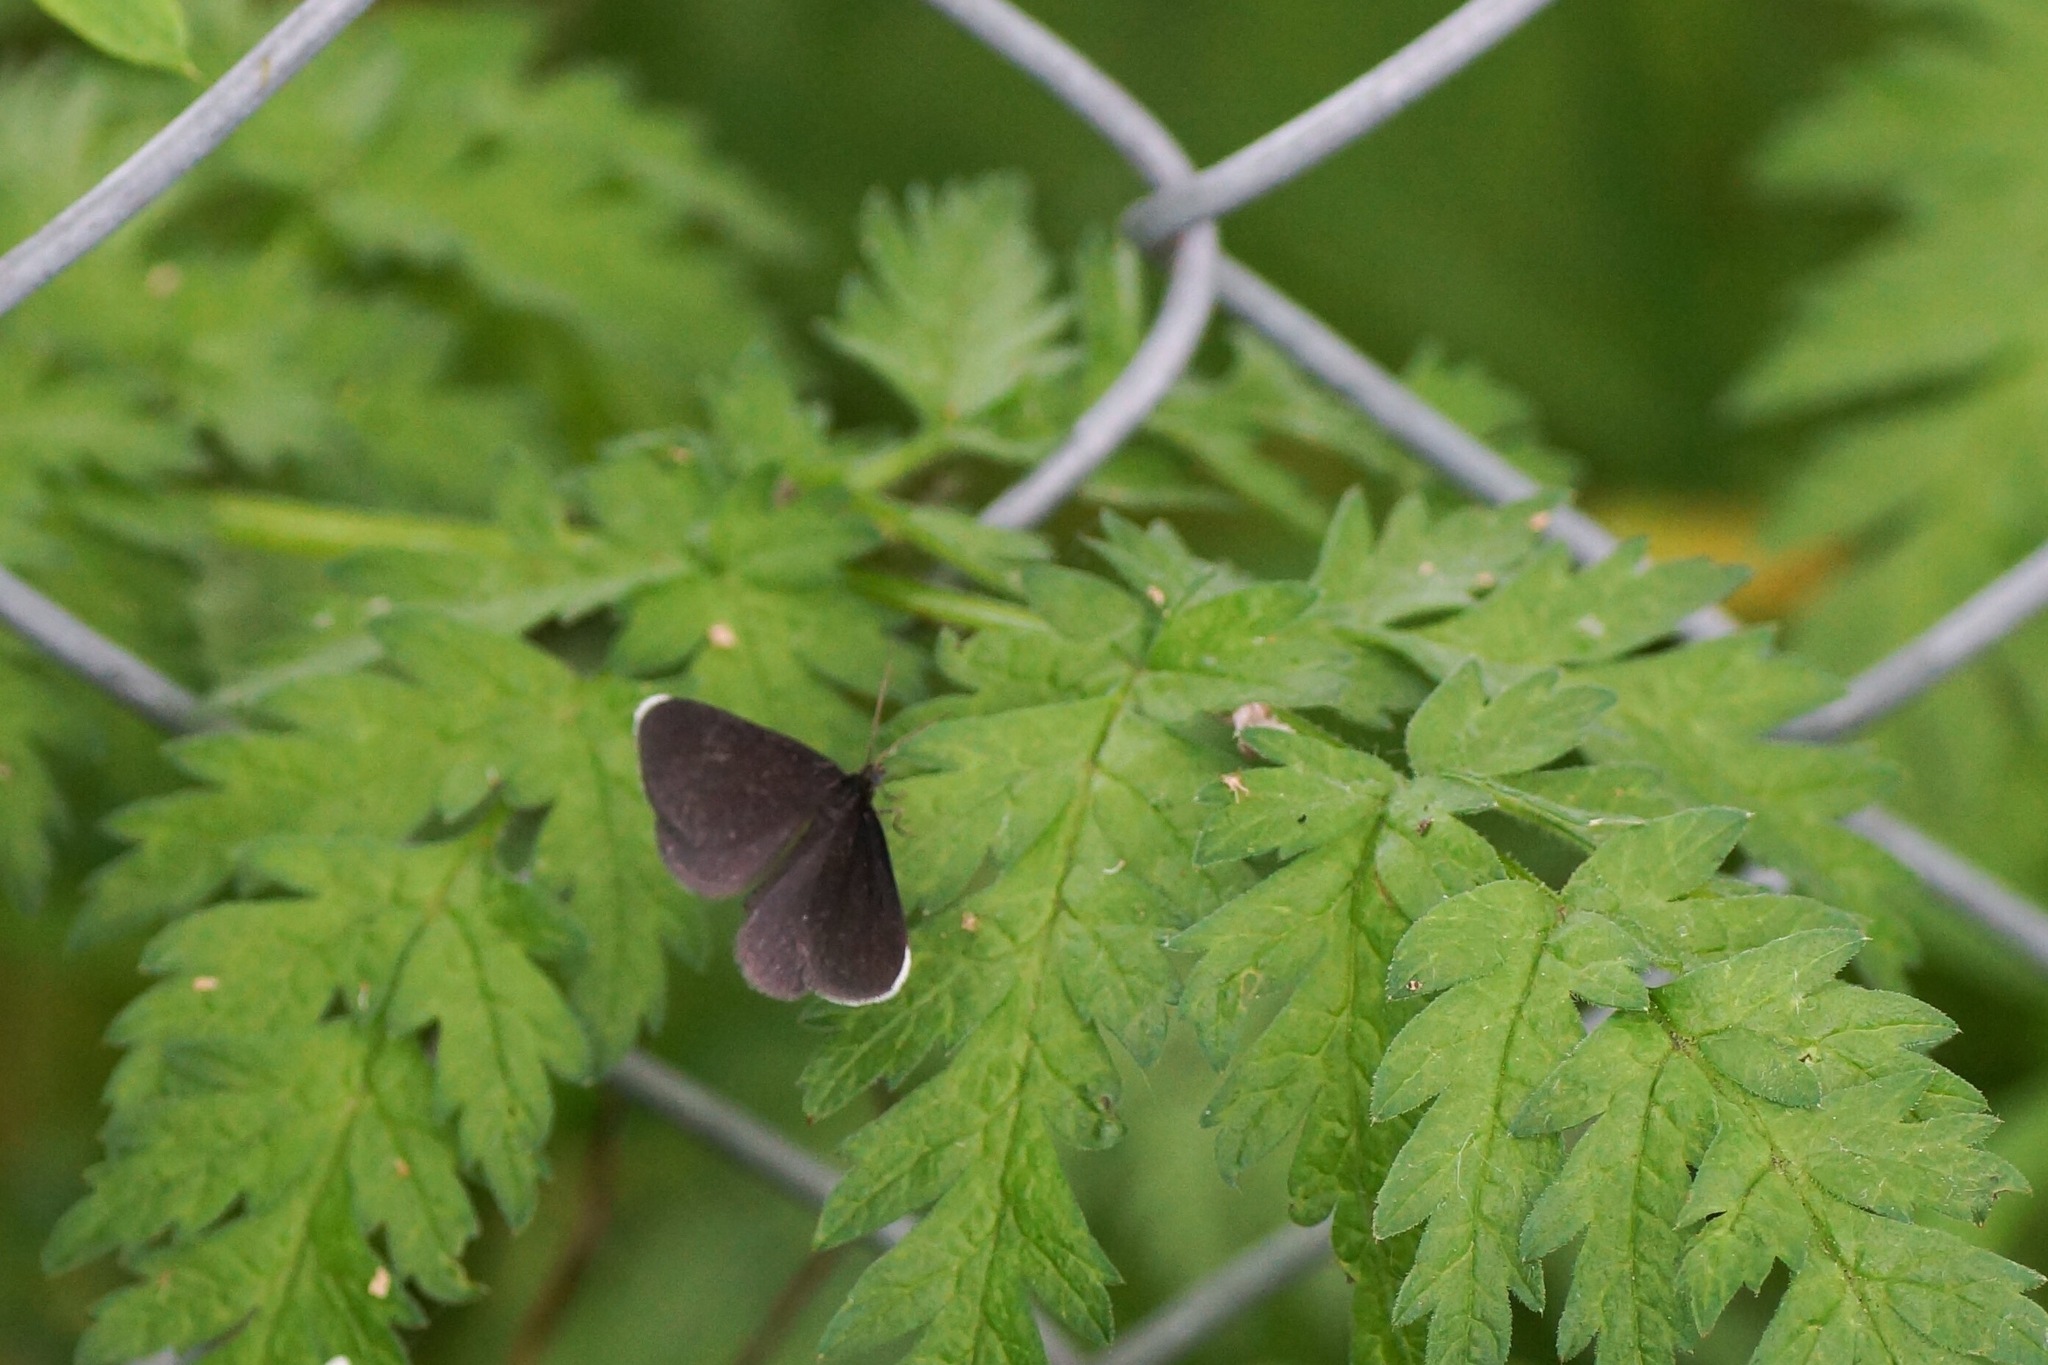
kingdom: Animalia
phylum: Arthropoda
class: Insecta
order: Lepidoptera
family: Geometridae
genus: Odezia
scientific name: Odezia atrata
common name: Chimney sweeper
